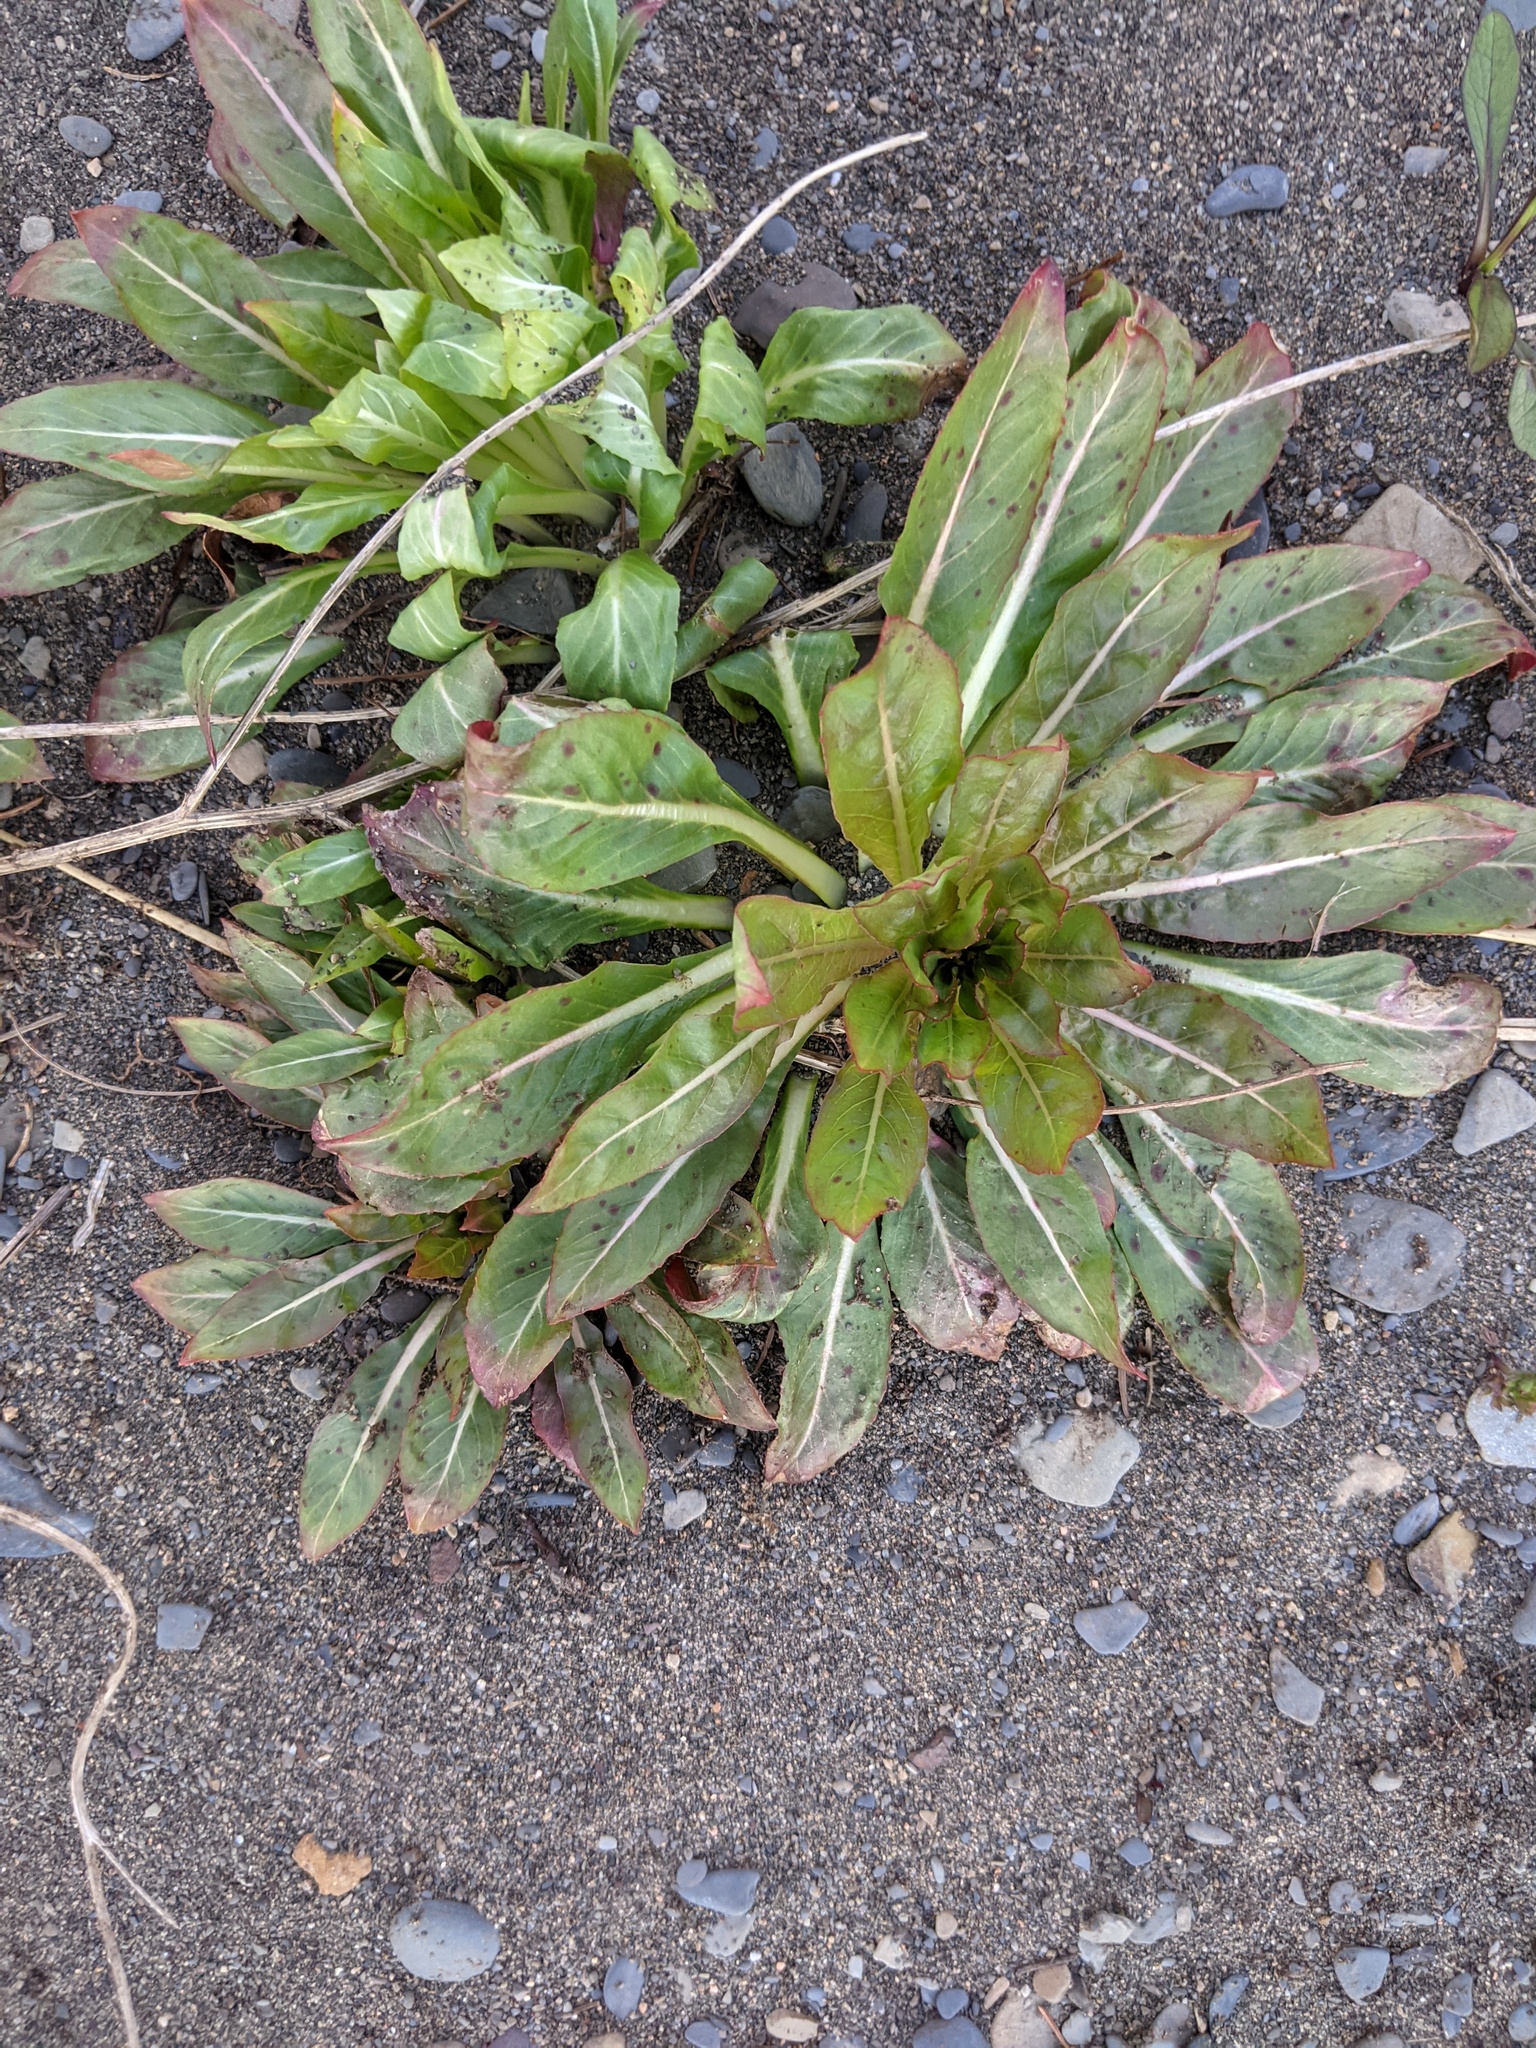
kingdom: Plantae
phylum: Tracheophyta
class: Magnoliopsida
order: Myrtales
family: Onagraceae
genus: Oenothera
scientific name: Oenothera biennis
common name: Common evening-primrose
